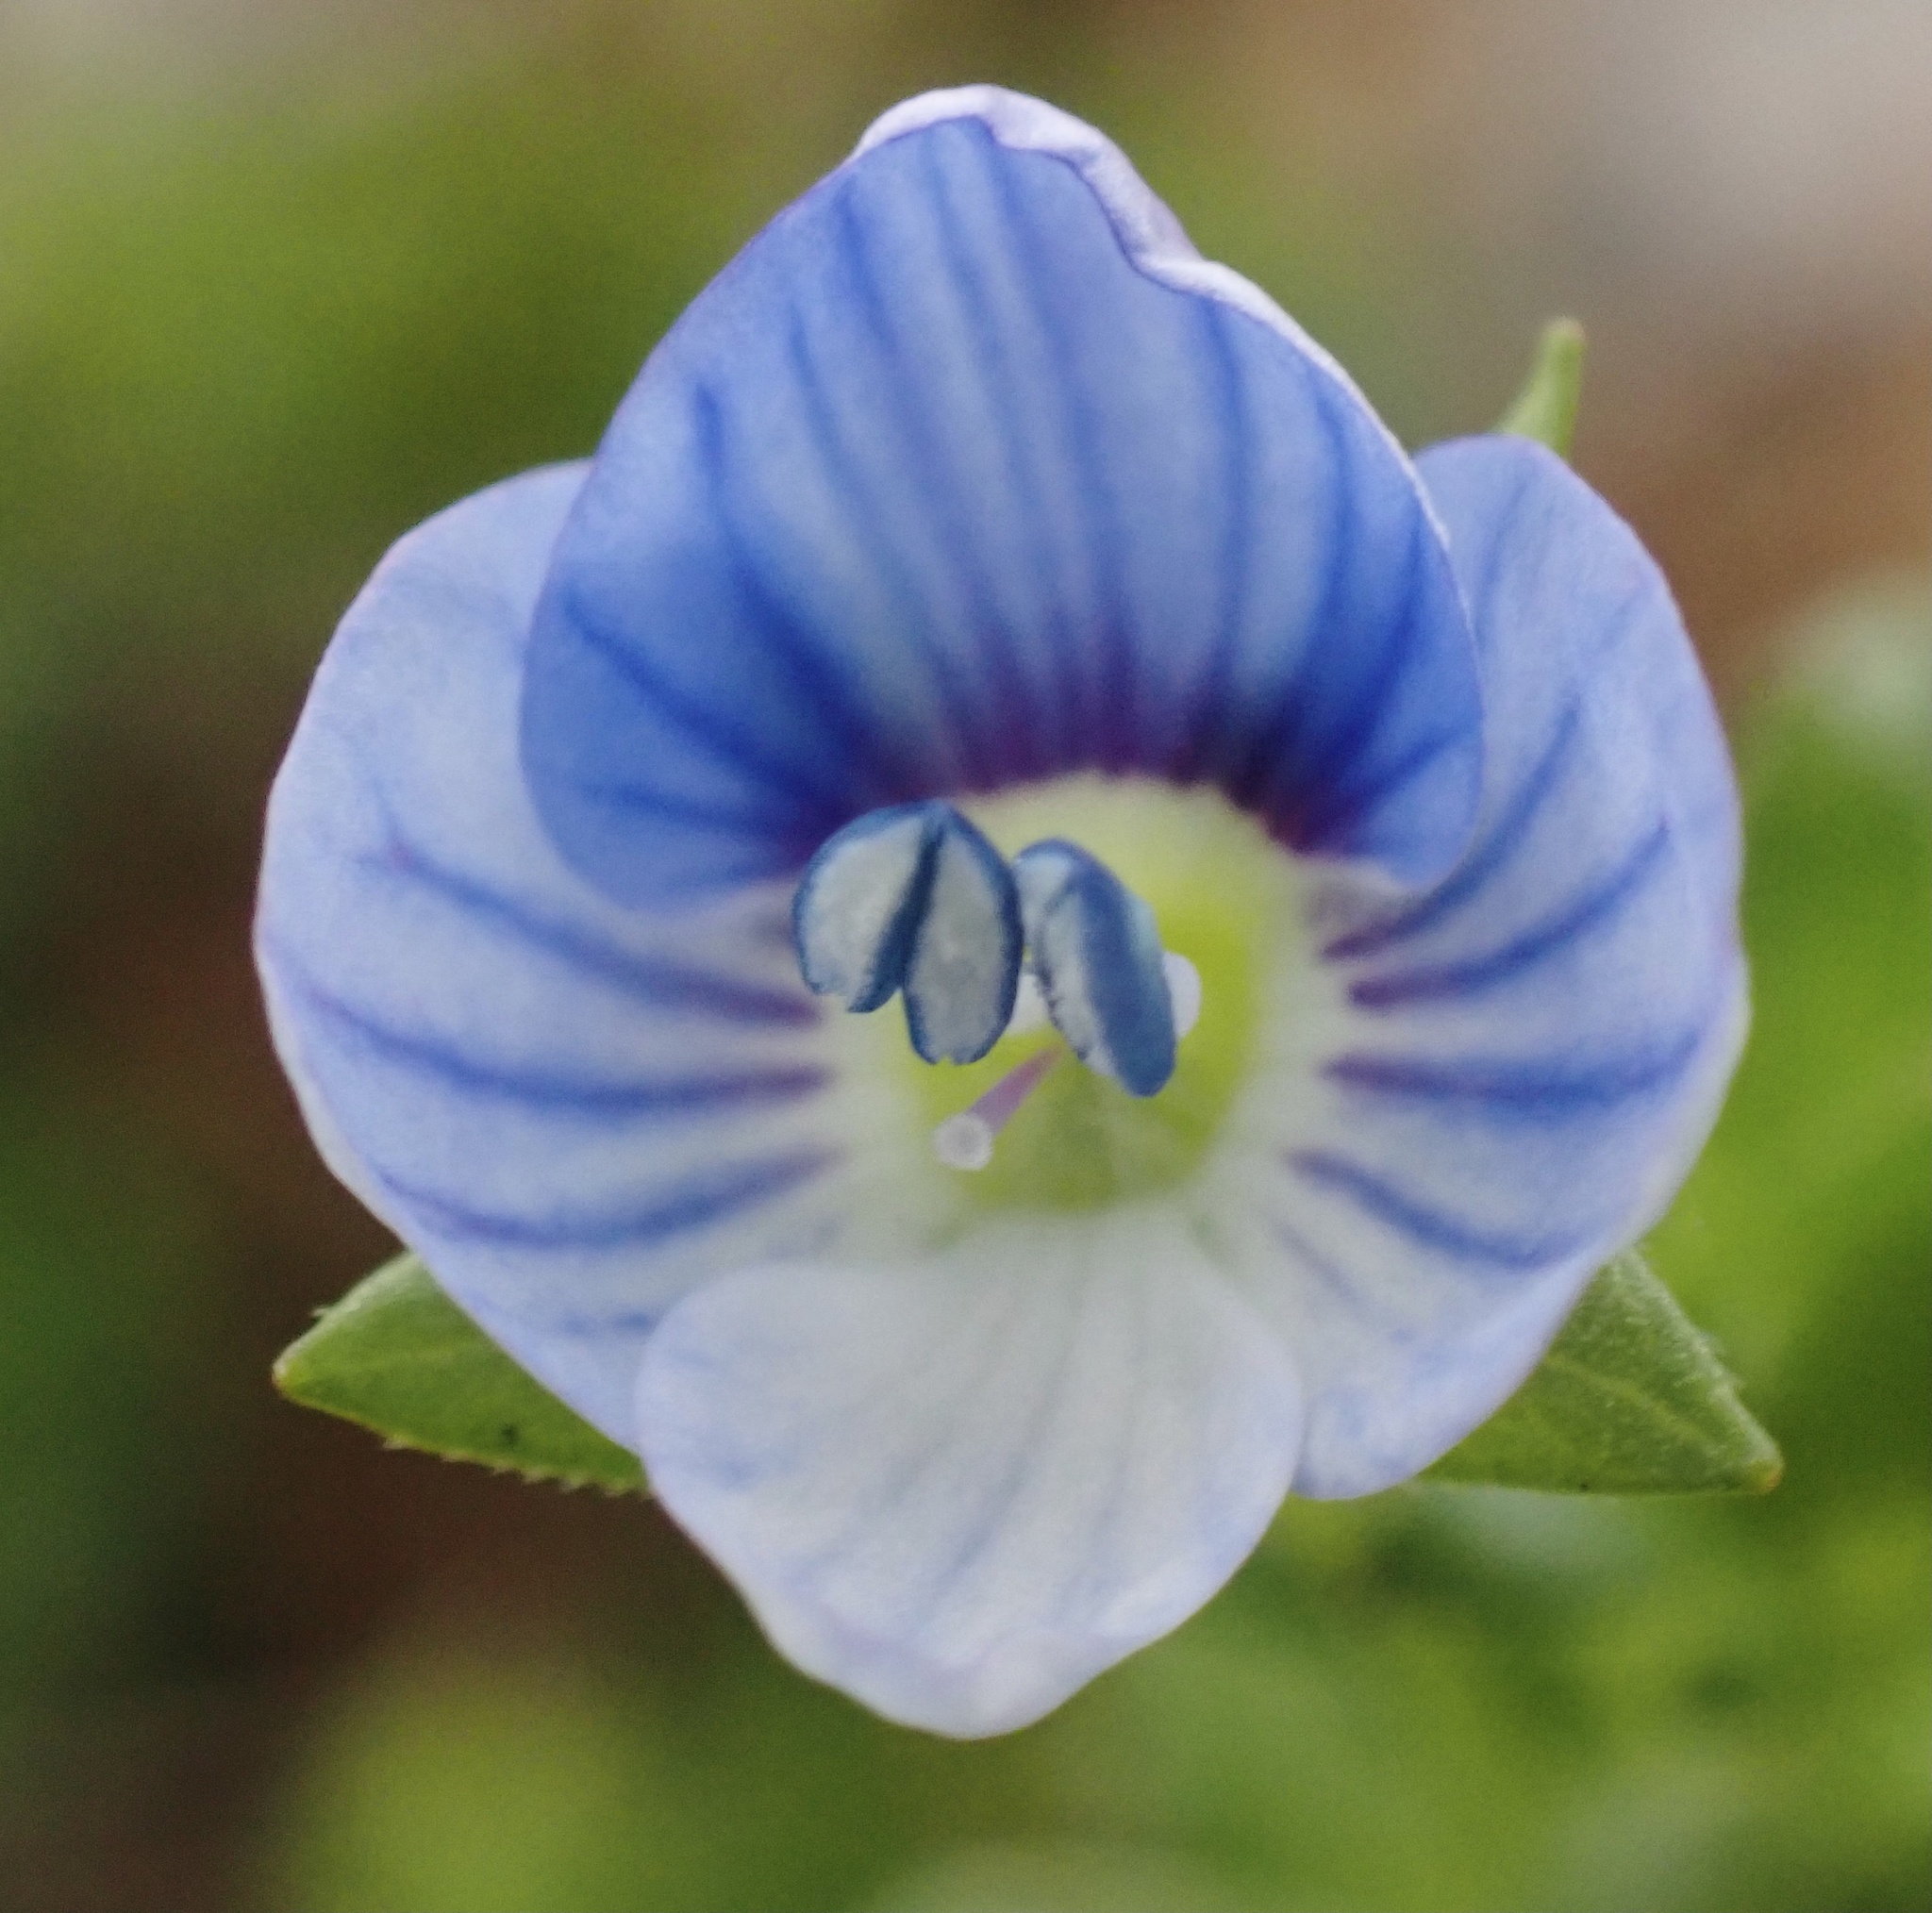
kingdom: Plantae
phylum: Tracheophyta
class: Magnoliopsida
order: Lamiales
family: Plantaginaceae
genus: Veronica
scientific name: Veronica persica
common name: Common field-speedwell
